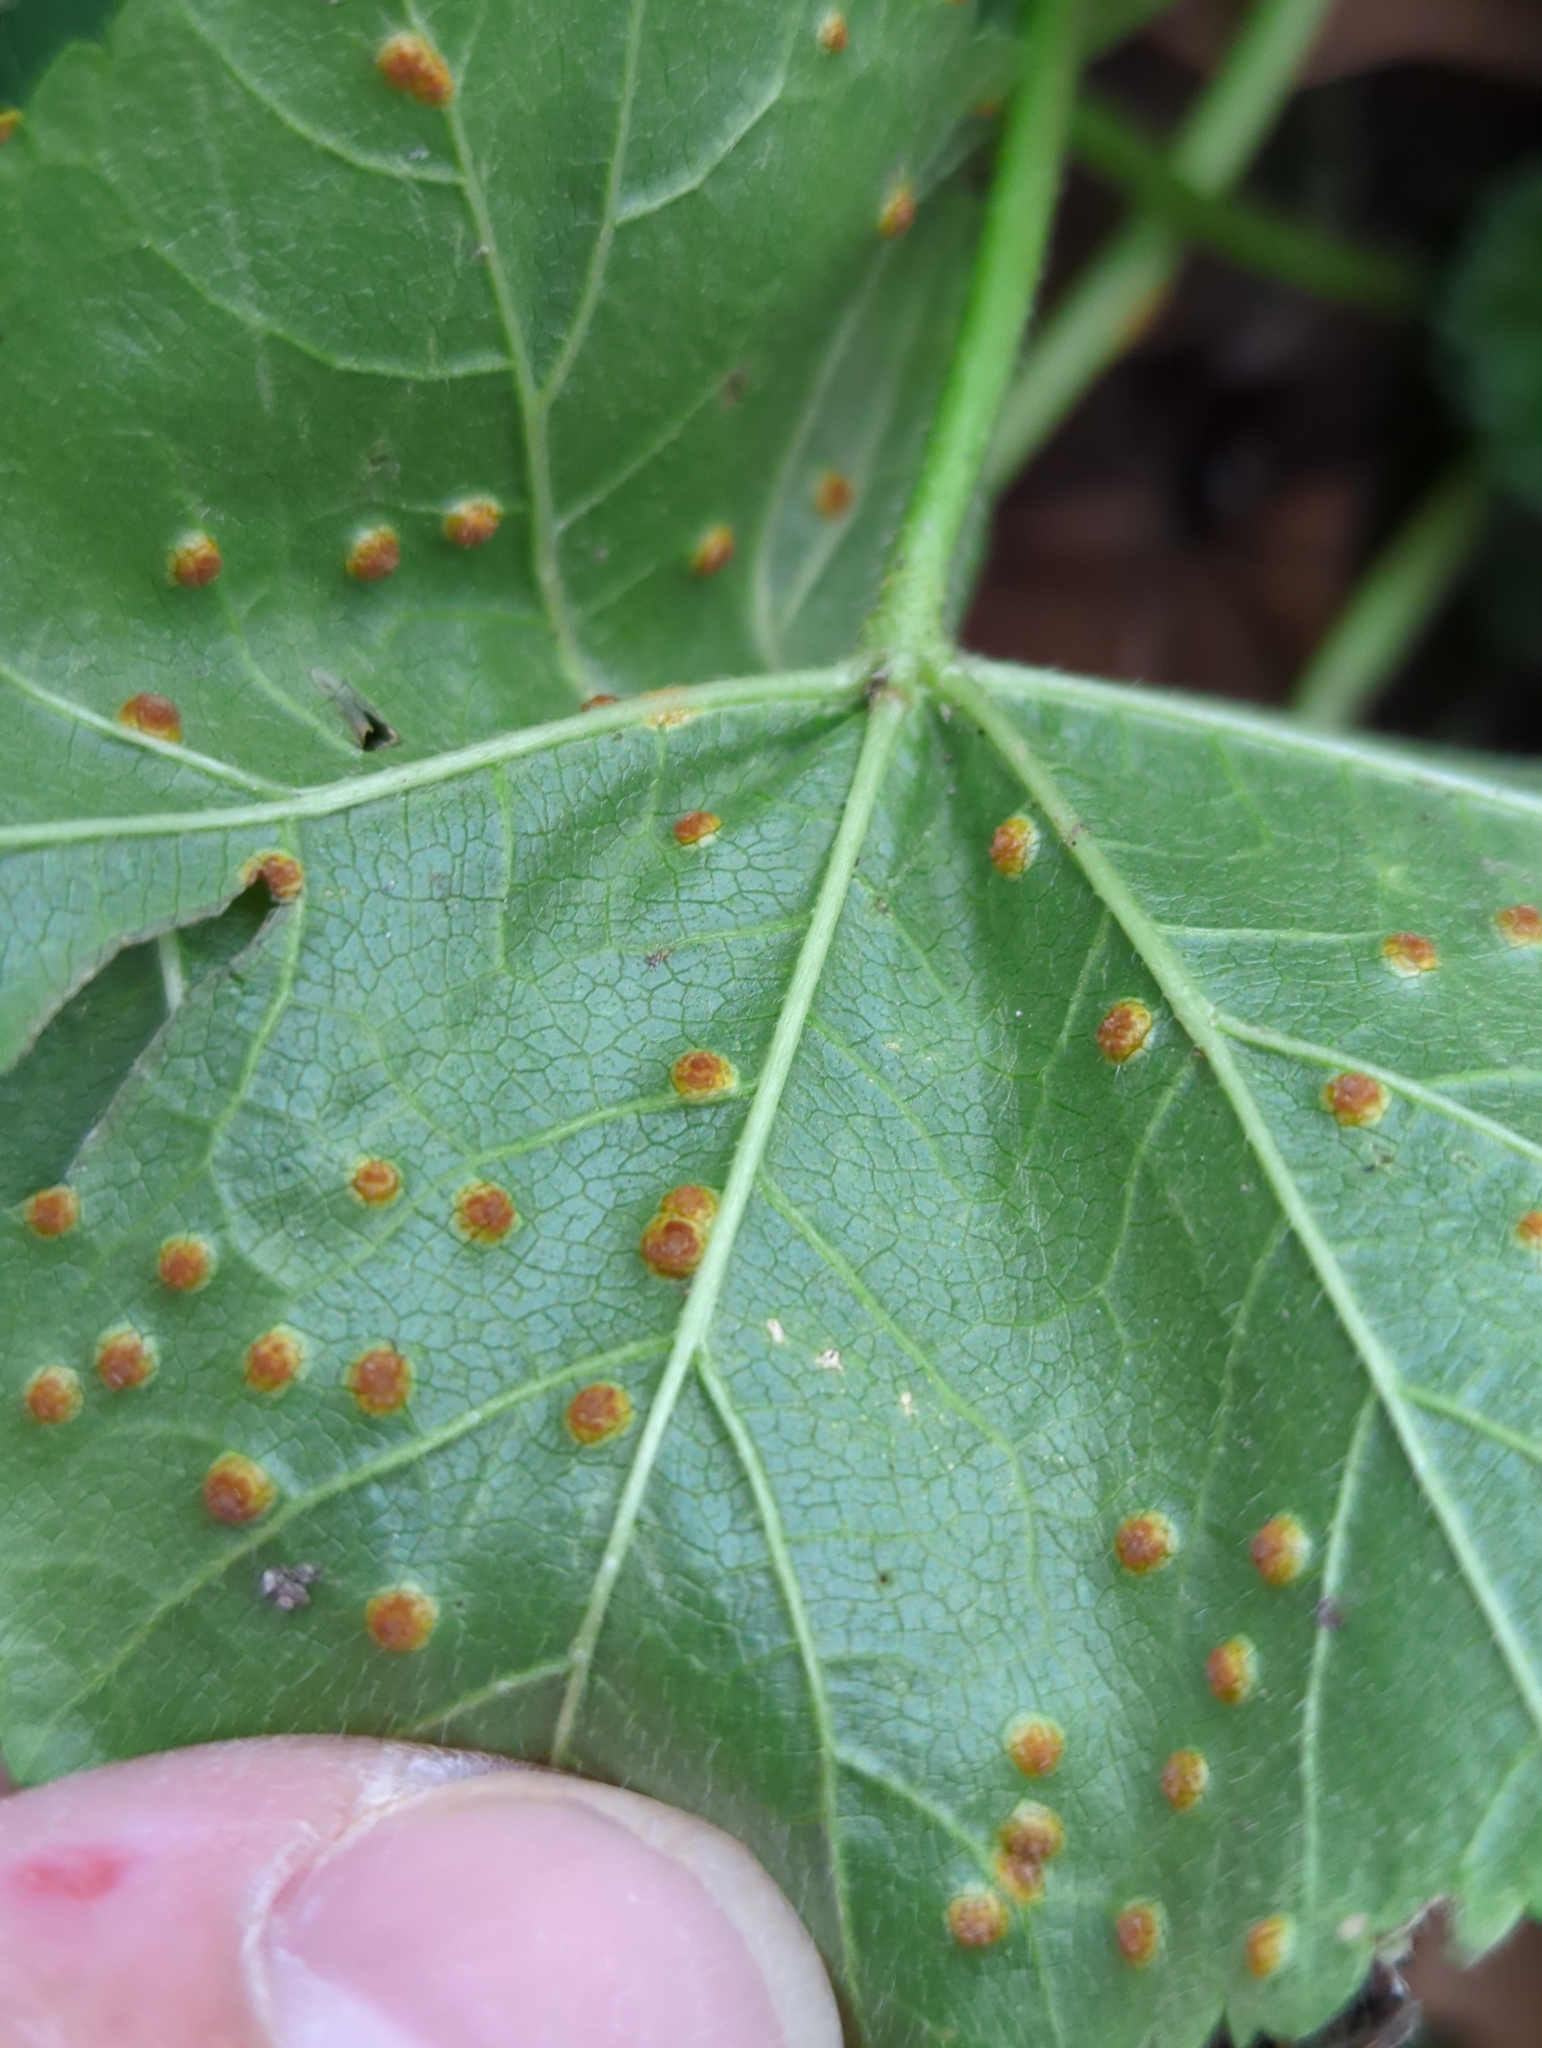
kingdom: Fungi
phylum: Basidiomycota
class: Pucciniomycetes
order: Pucciniales
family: Pucciniaceae
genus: Puccinia
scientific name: Puccinia malvacearum
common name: Hollyhock rust
